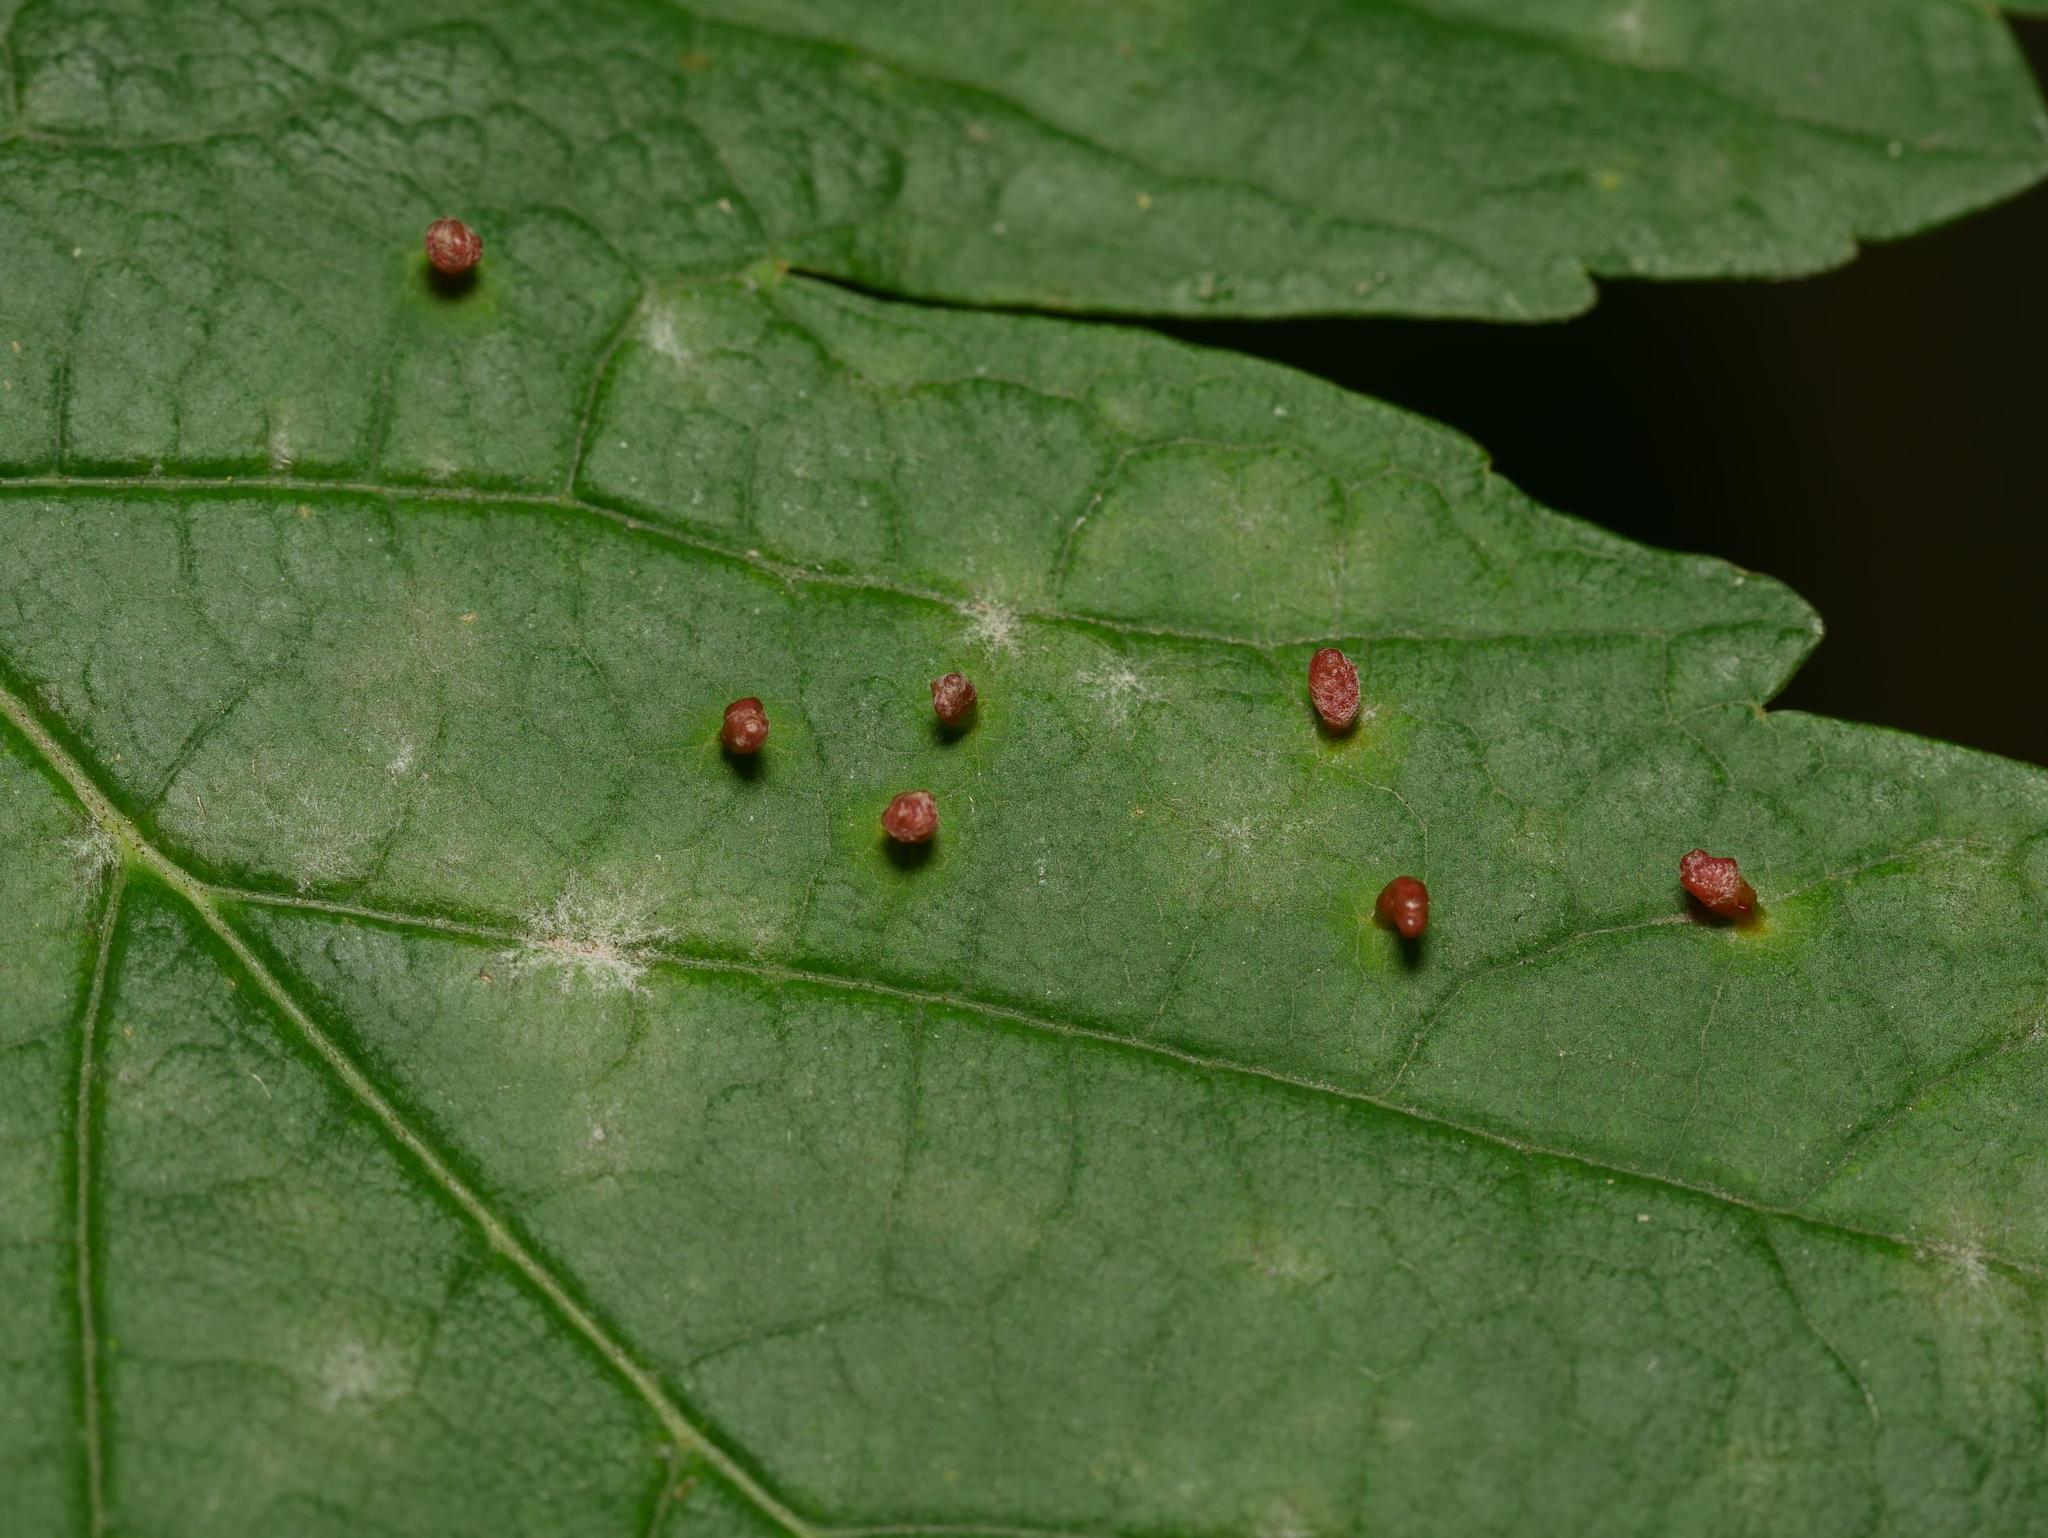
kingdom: Animalia
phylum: Arthropoda
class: Arachnida
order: Trombidiformes
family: Eriophyidae
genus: Aceria
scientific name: Aceria cephaloneus
